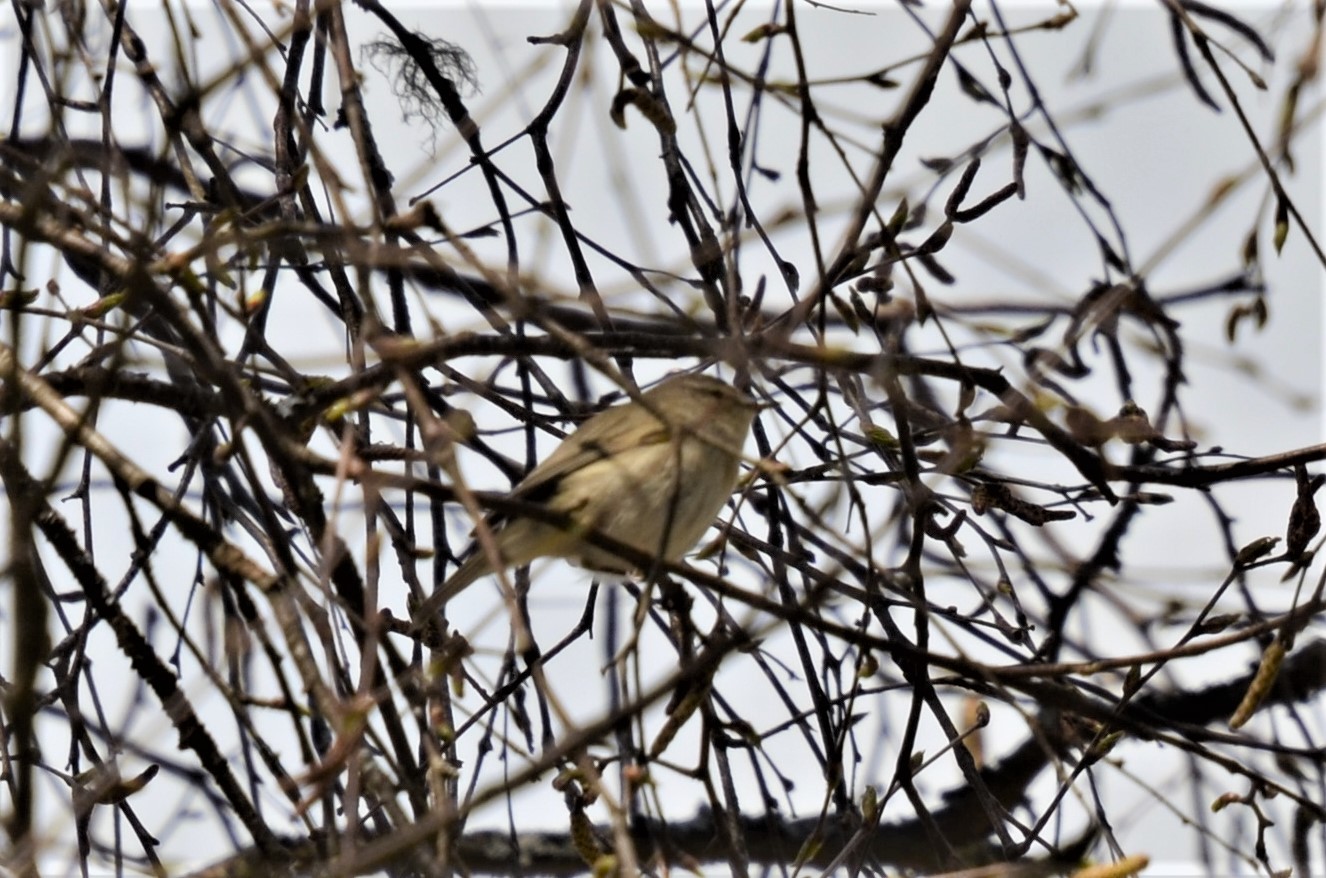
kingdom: Animalia
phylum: Chordata
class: Aves
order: Passeriformes
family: Phylloscopidae
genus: Phylloscopus
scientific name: Phylloscopus collybita
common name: Common chiffchaff
